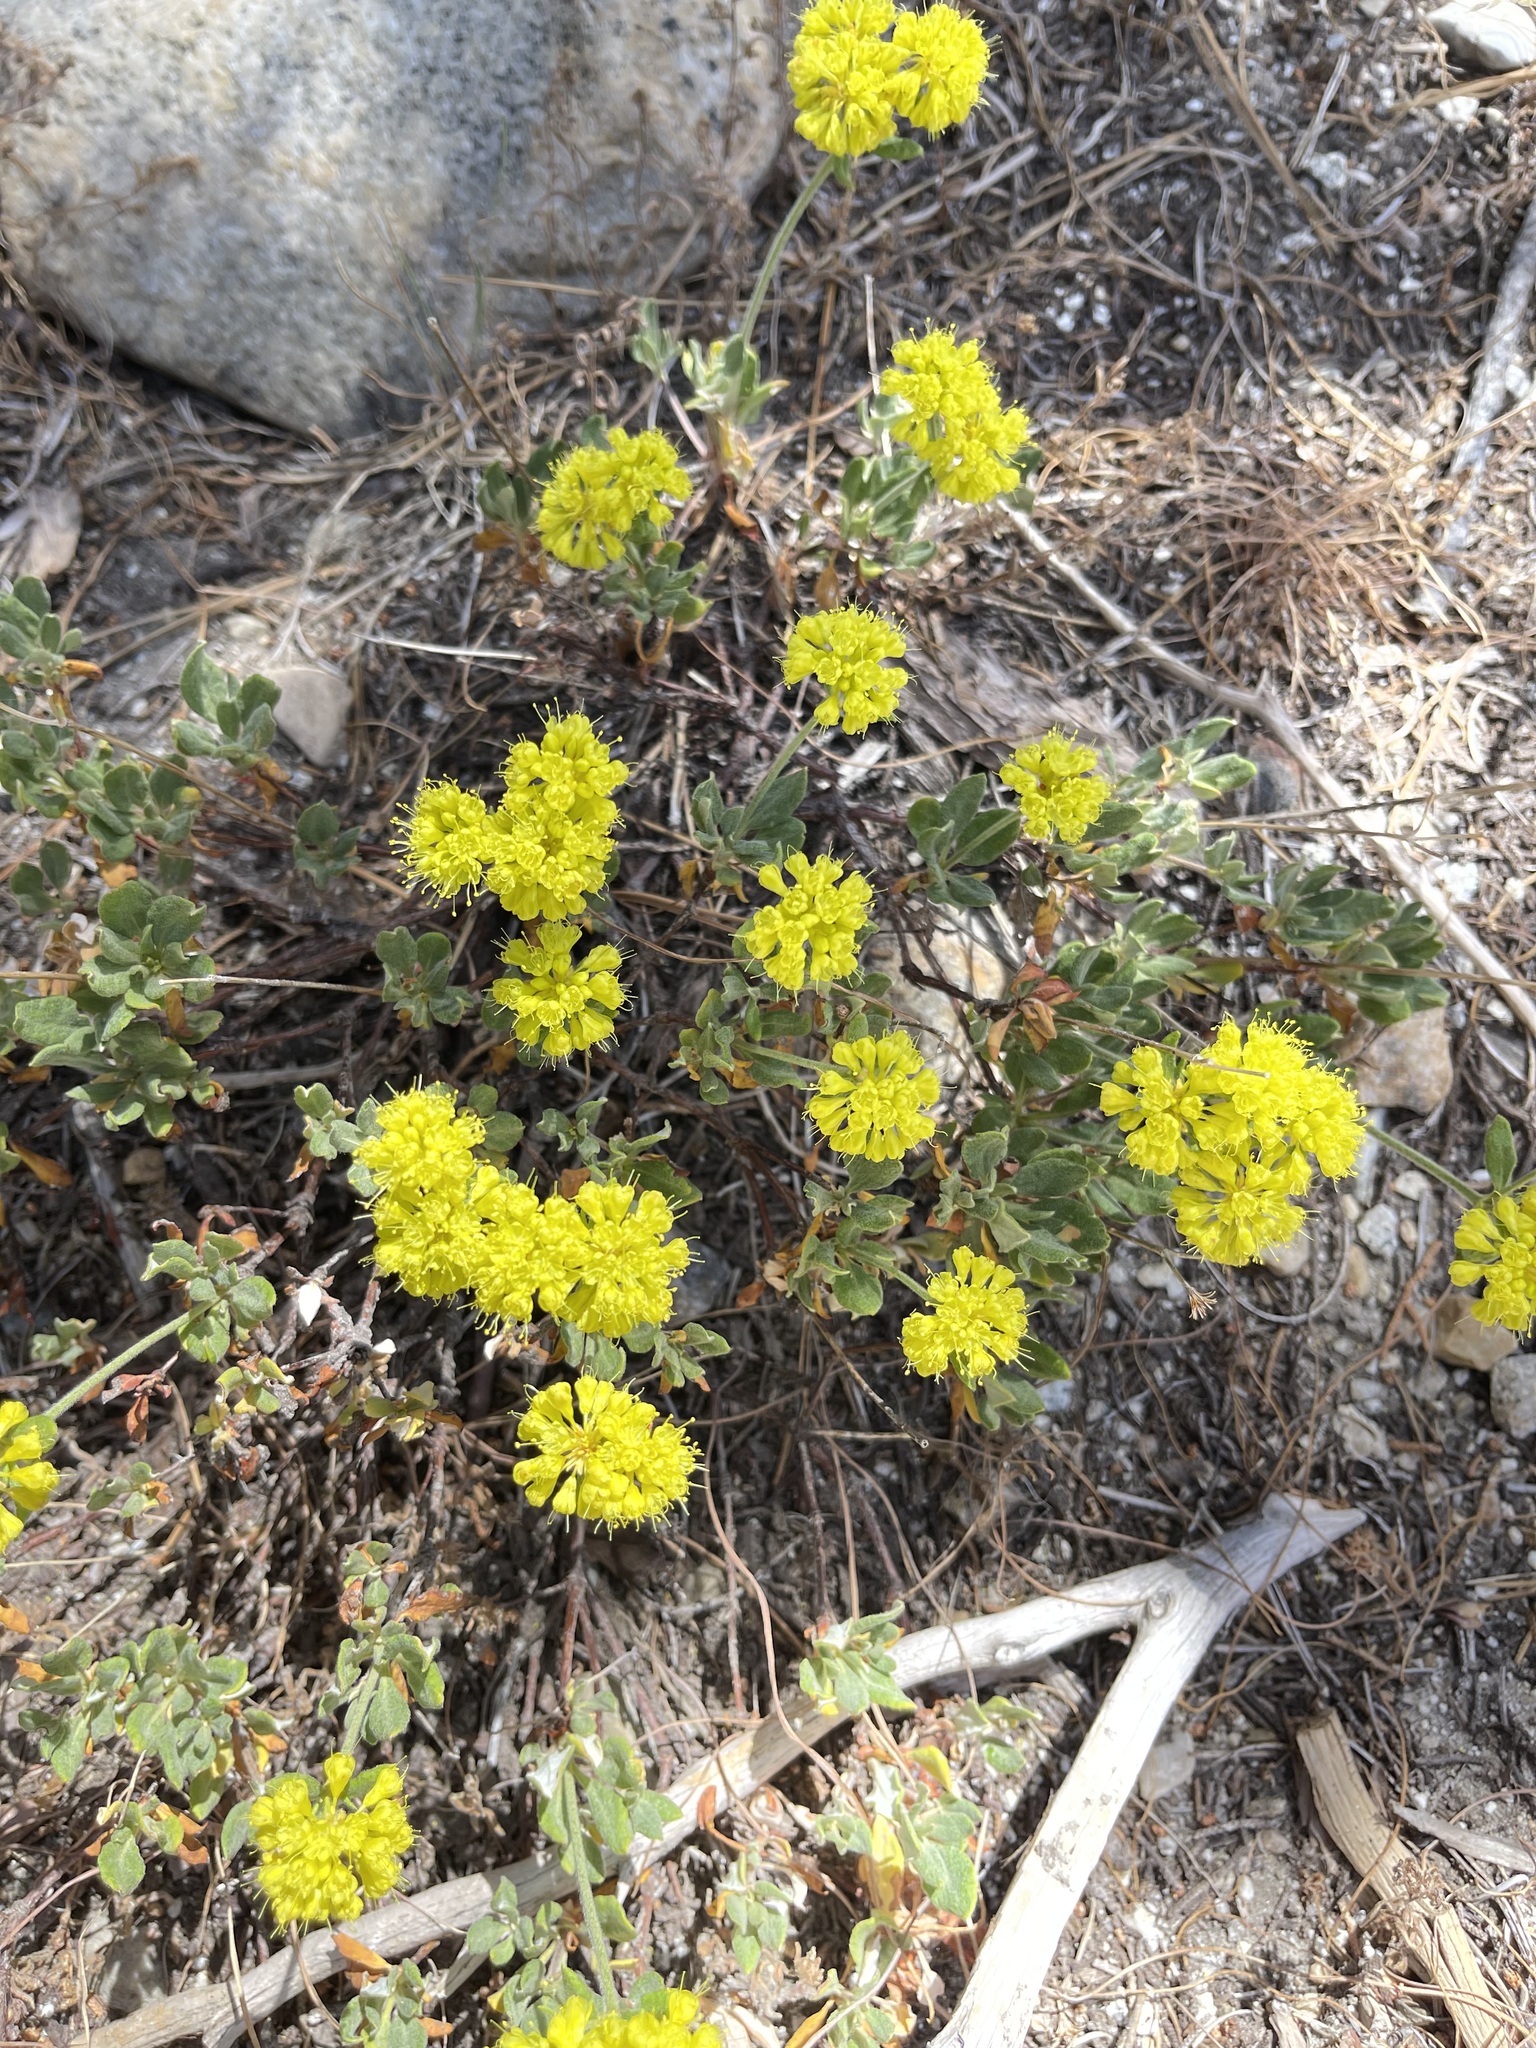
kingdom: Plantae
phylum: Tracheophyta
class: Magnoliopsida
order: Caryophyllales
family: Polygonaceae
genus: Eriogonum
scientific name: Eriogonum umbellatum
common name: Sulfur-buckwheat
